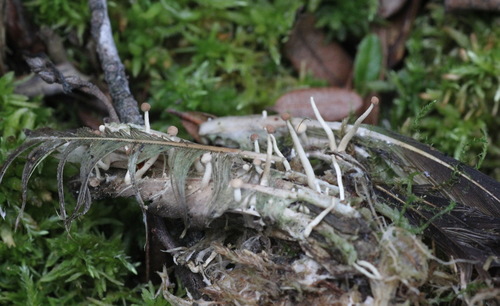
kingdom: Fungi
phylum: Ascomycota
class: Eurotiomycetes
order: Onygenales
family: Onygenaceae
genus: Onygena
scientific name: Onygena corvina
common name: Feather stalkball
